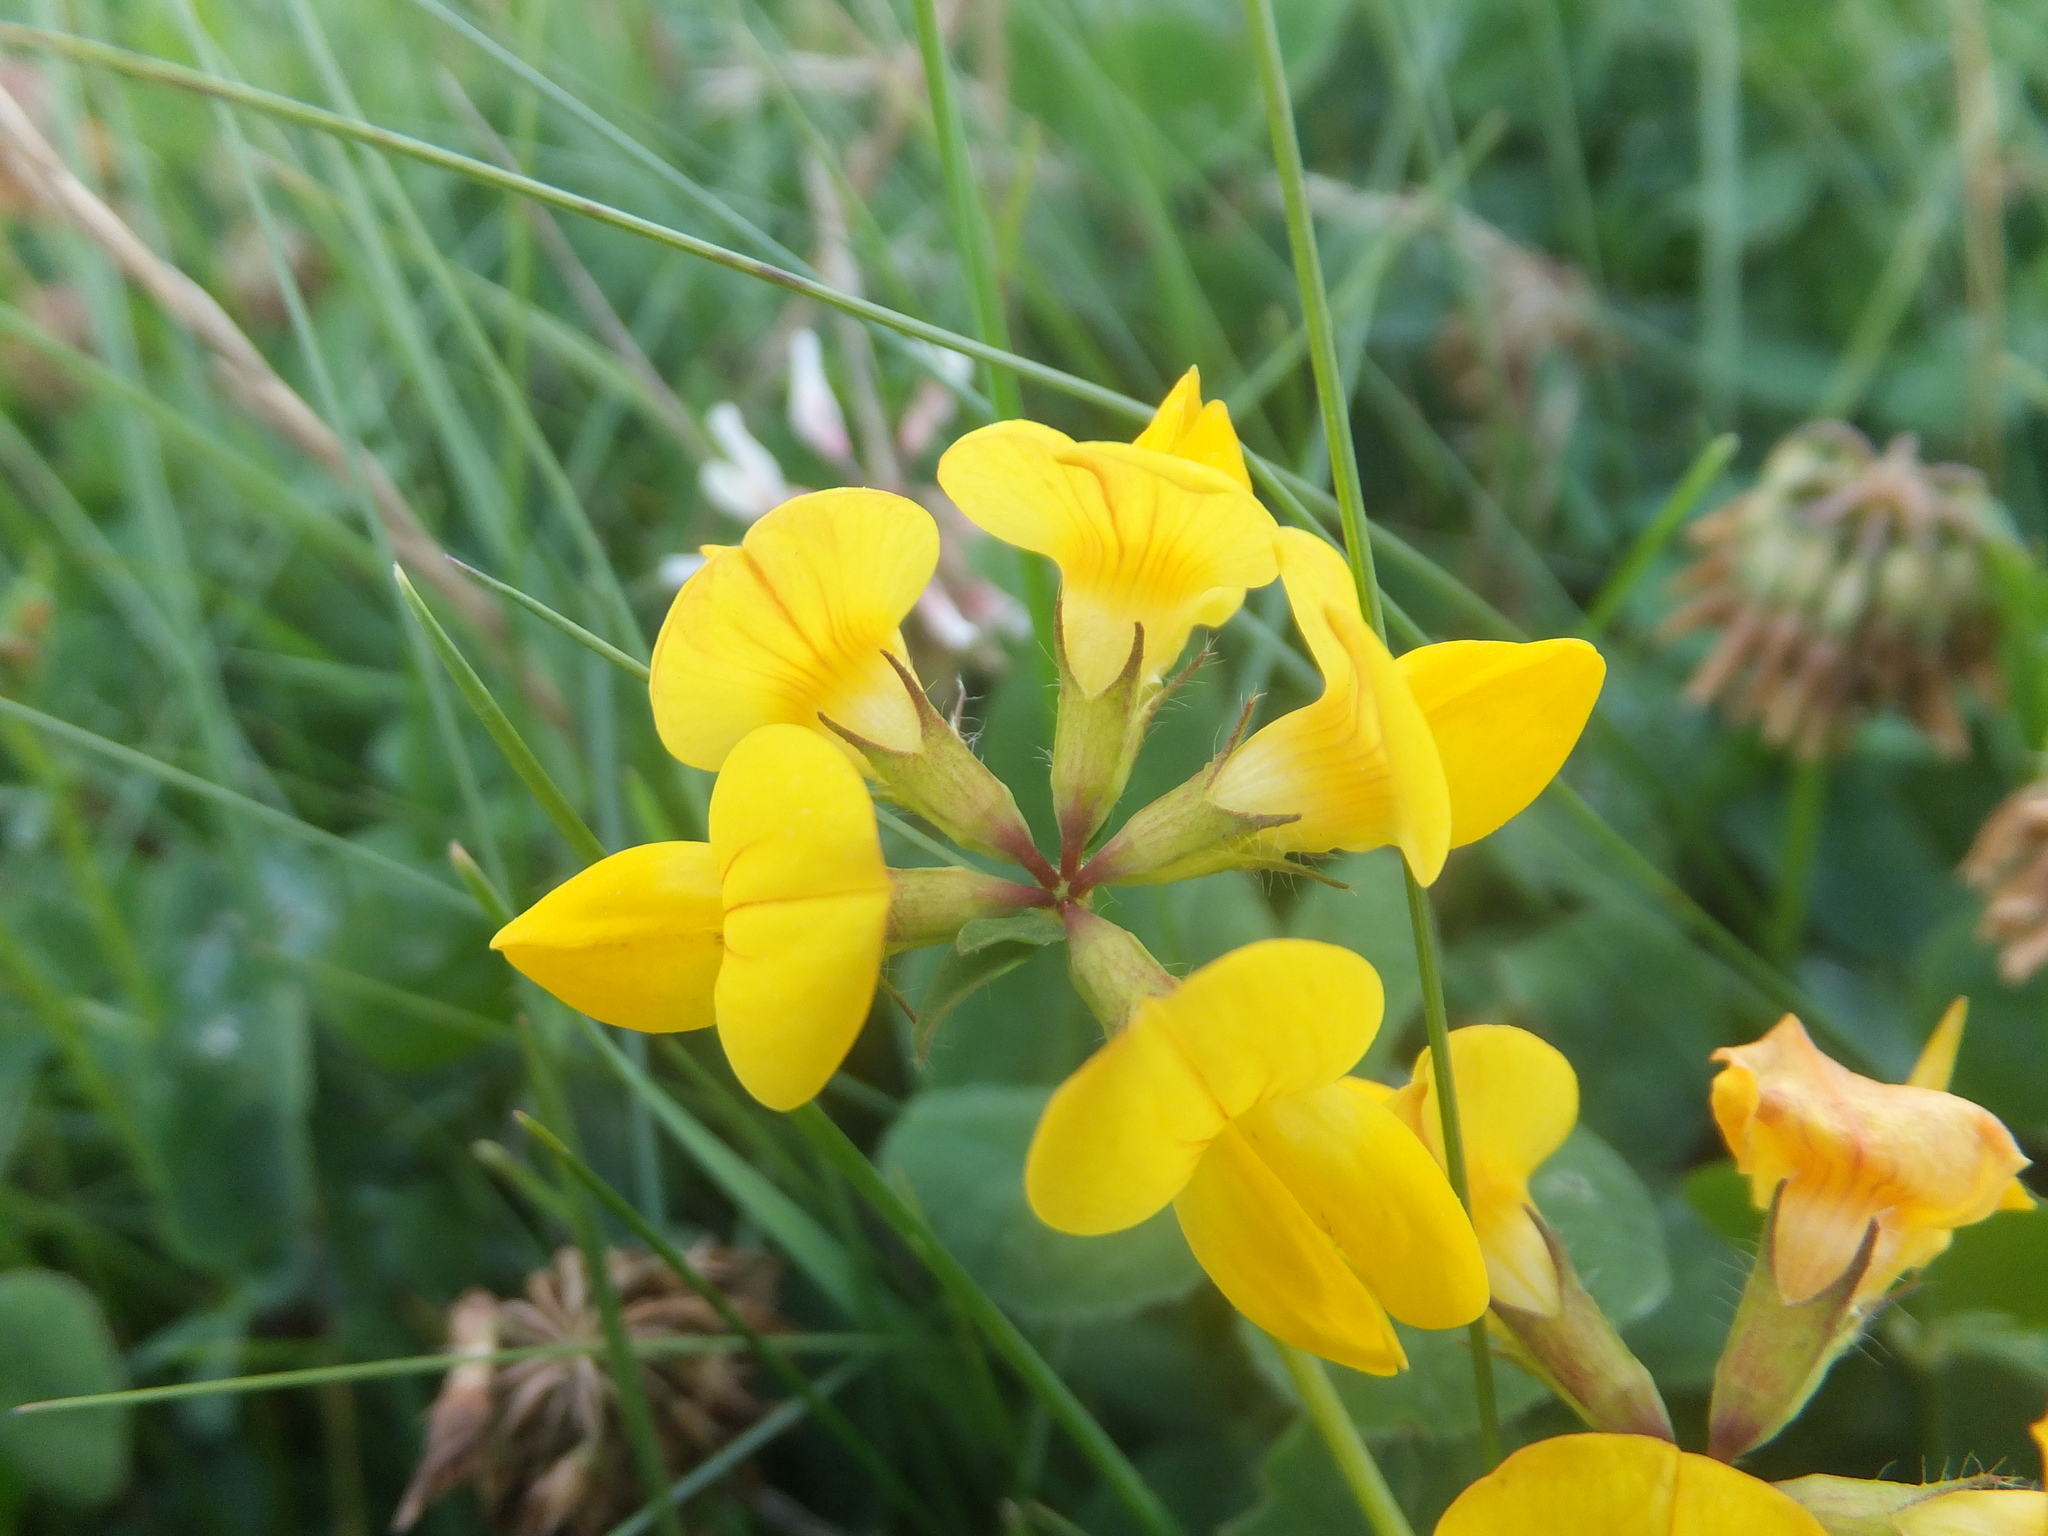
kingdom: Plantae
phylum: Tracheophyta
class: Magnoliopsida
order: Fabales
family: Fabaceae
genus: Lotus
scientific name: Lotus corniculatus
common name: Common bird's-foot-trefoil
